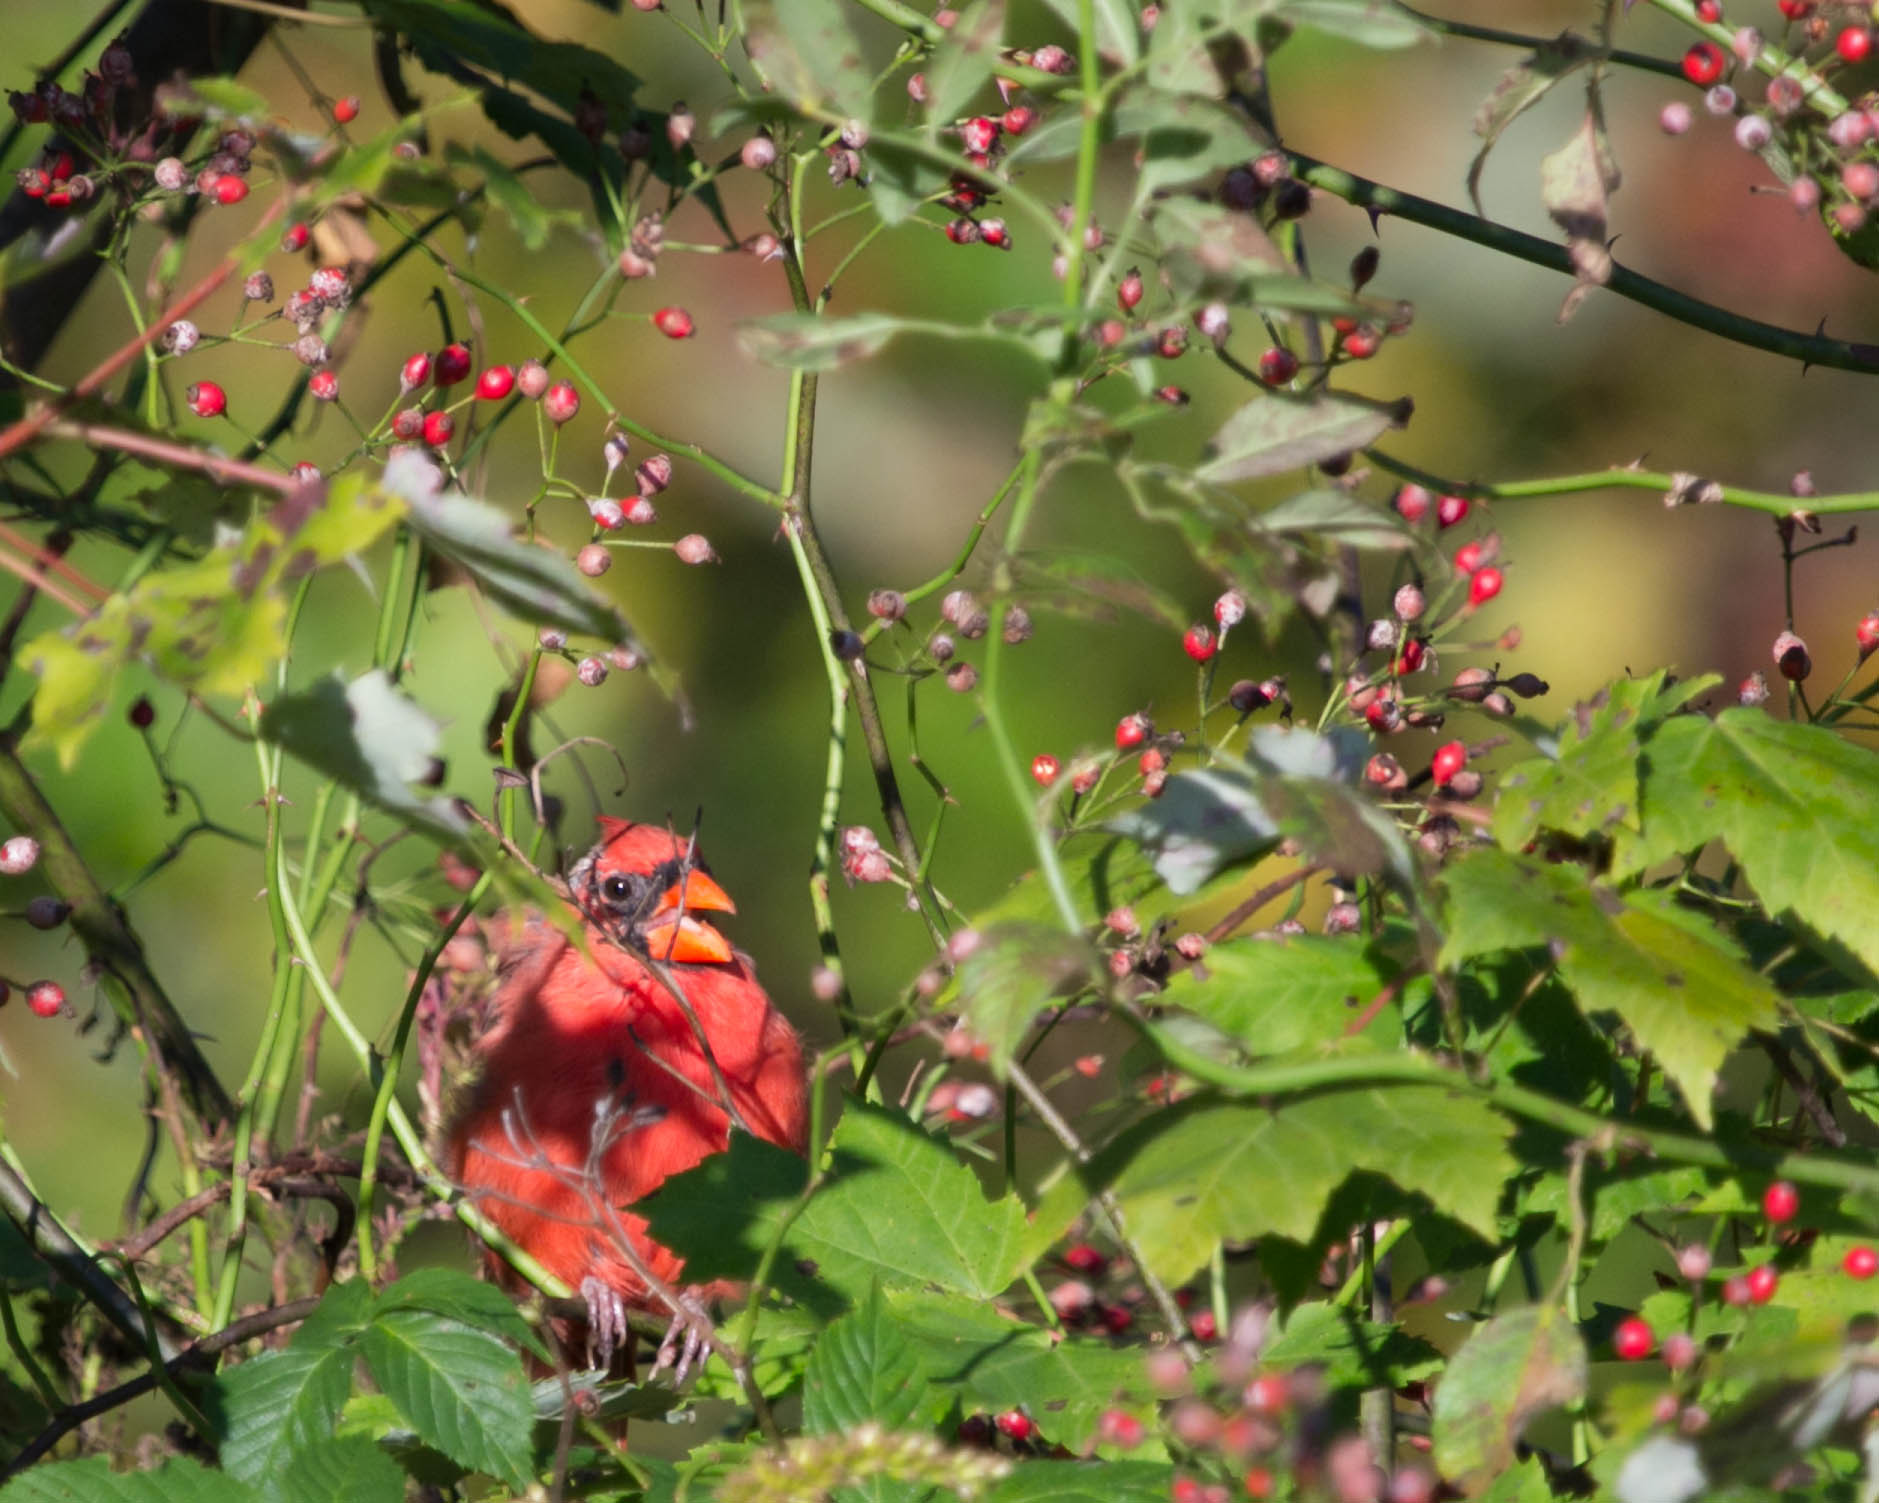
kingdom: Animalia
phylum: Chordata
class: Aves
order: Passeriformes
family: Cardinalidae
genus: Cardinalis
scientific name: Cardinalis cardinalis
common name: Northern cardinal
